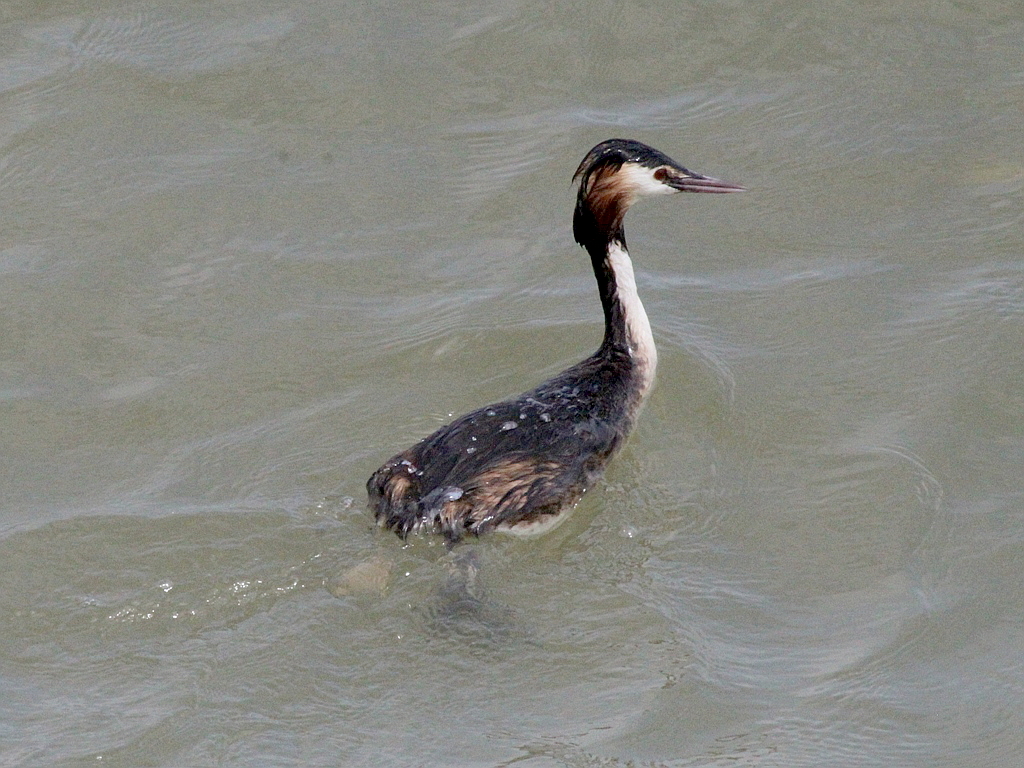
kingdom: Animalia
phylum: Chordata
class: Aves
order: Podicipediformes
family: Podicipedidae
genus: Podiceps
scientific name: Podiceps cristatus
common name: Great crested grebe
